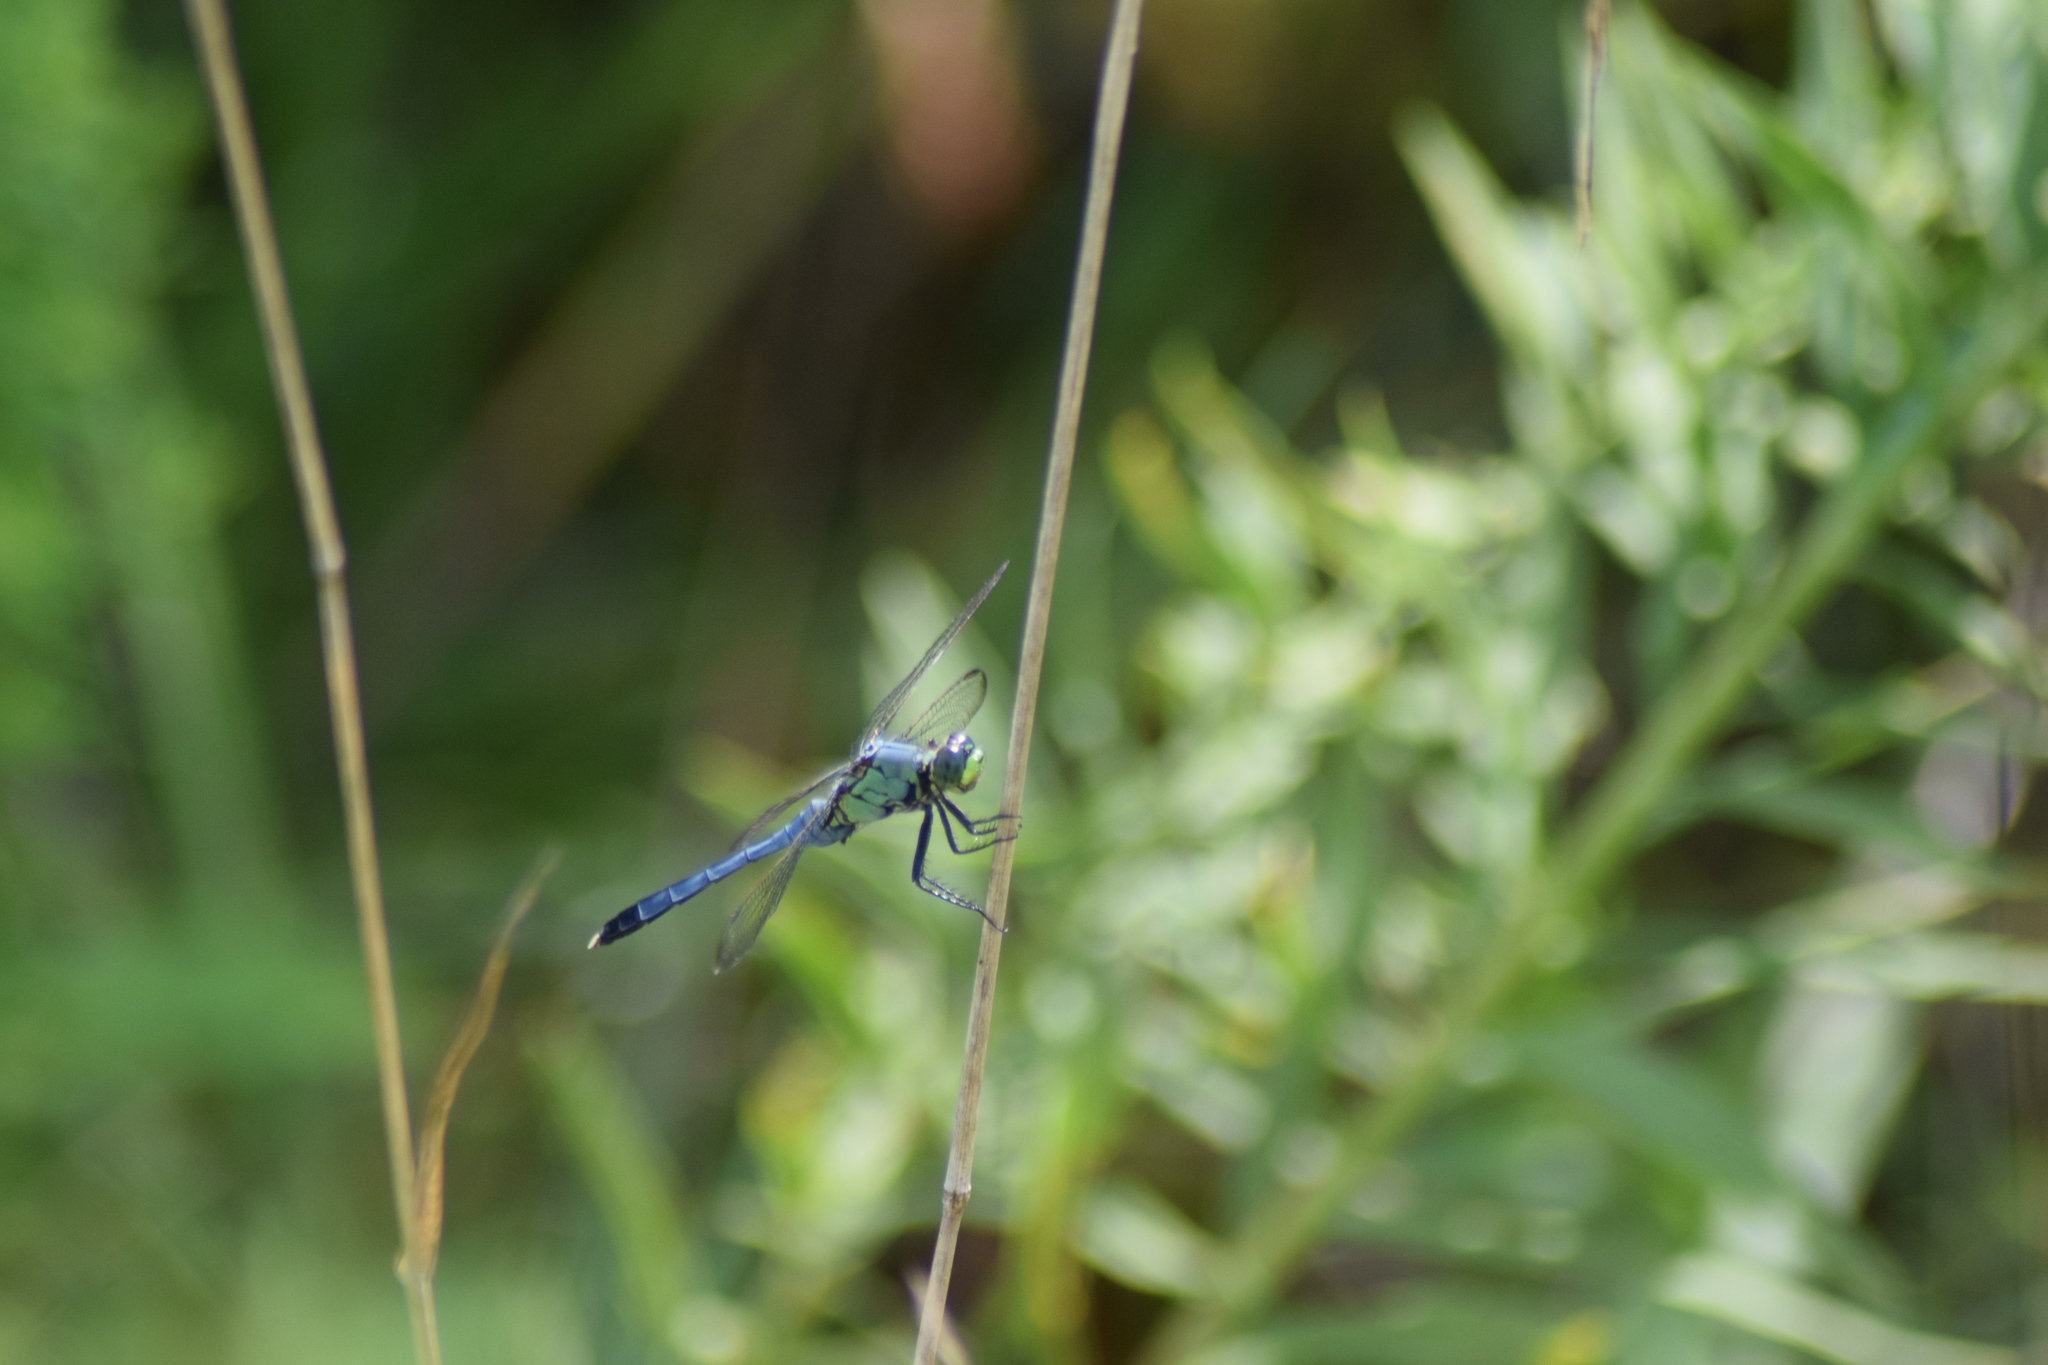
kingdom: Animalia
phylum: Arthropoda
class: Insecta
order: Odonata
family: Libellulidae
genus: Erythemis
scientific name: Erythemis simplicicollis
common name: Eastern pondhawk
